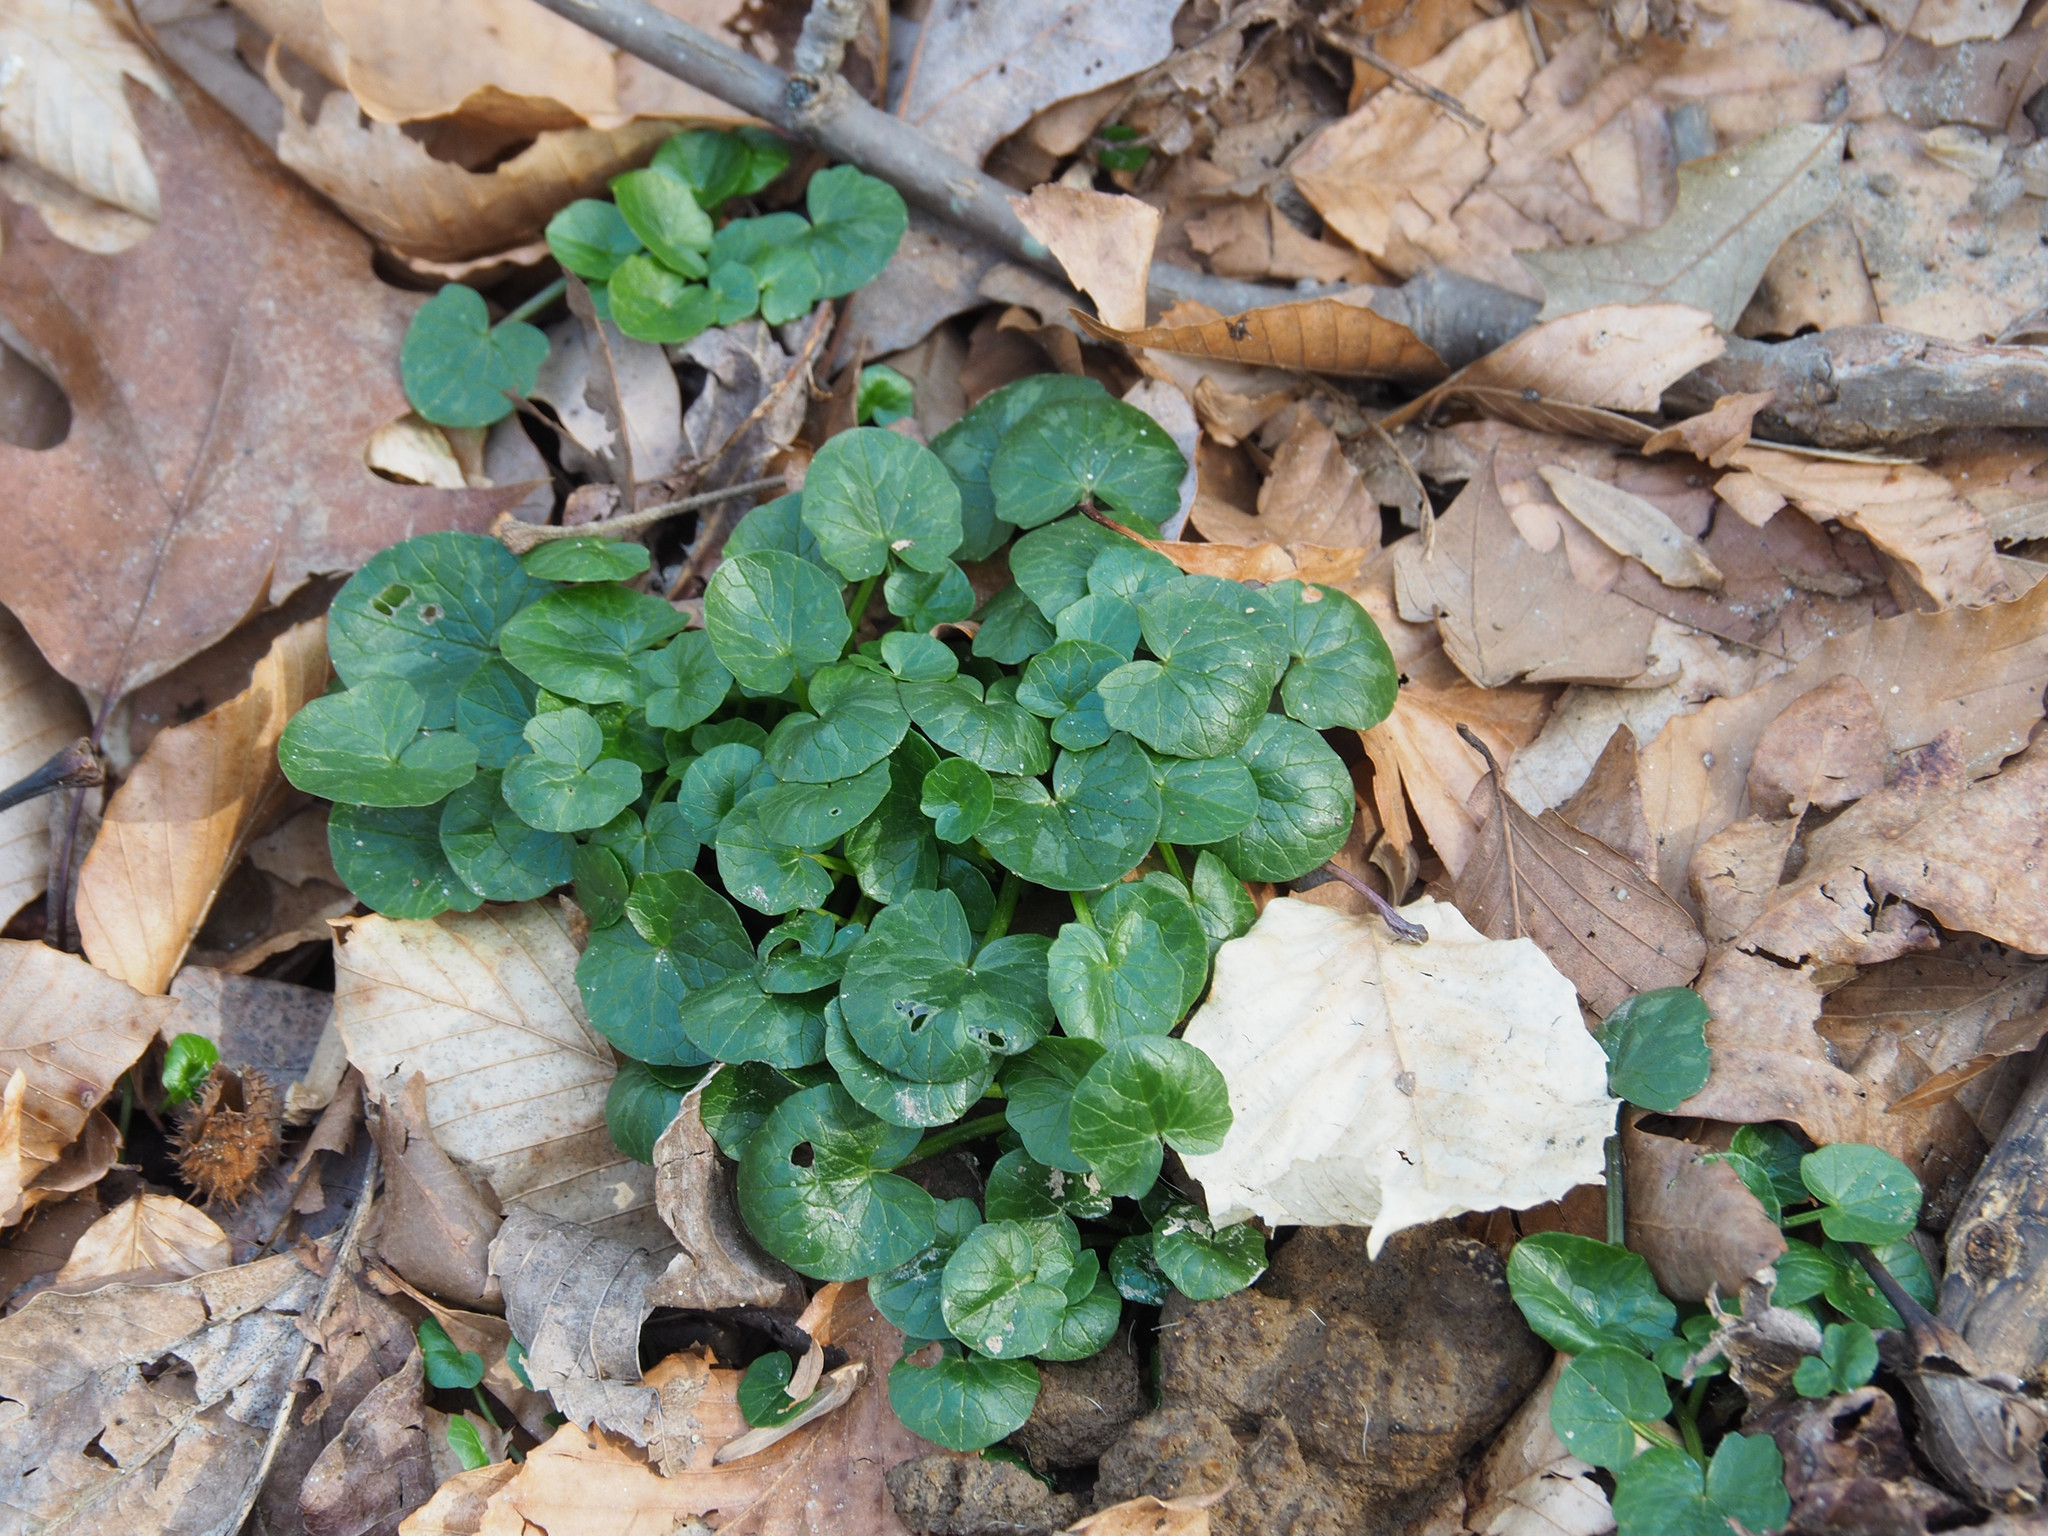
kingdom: Plantae
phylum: Tracheophyta
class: Magnoliopsida
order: Ranunculales
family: Ranunculaceae
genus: Ficaria
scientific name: Ficaria verna
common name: Lesser celandine
